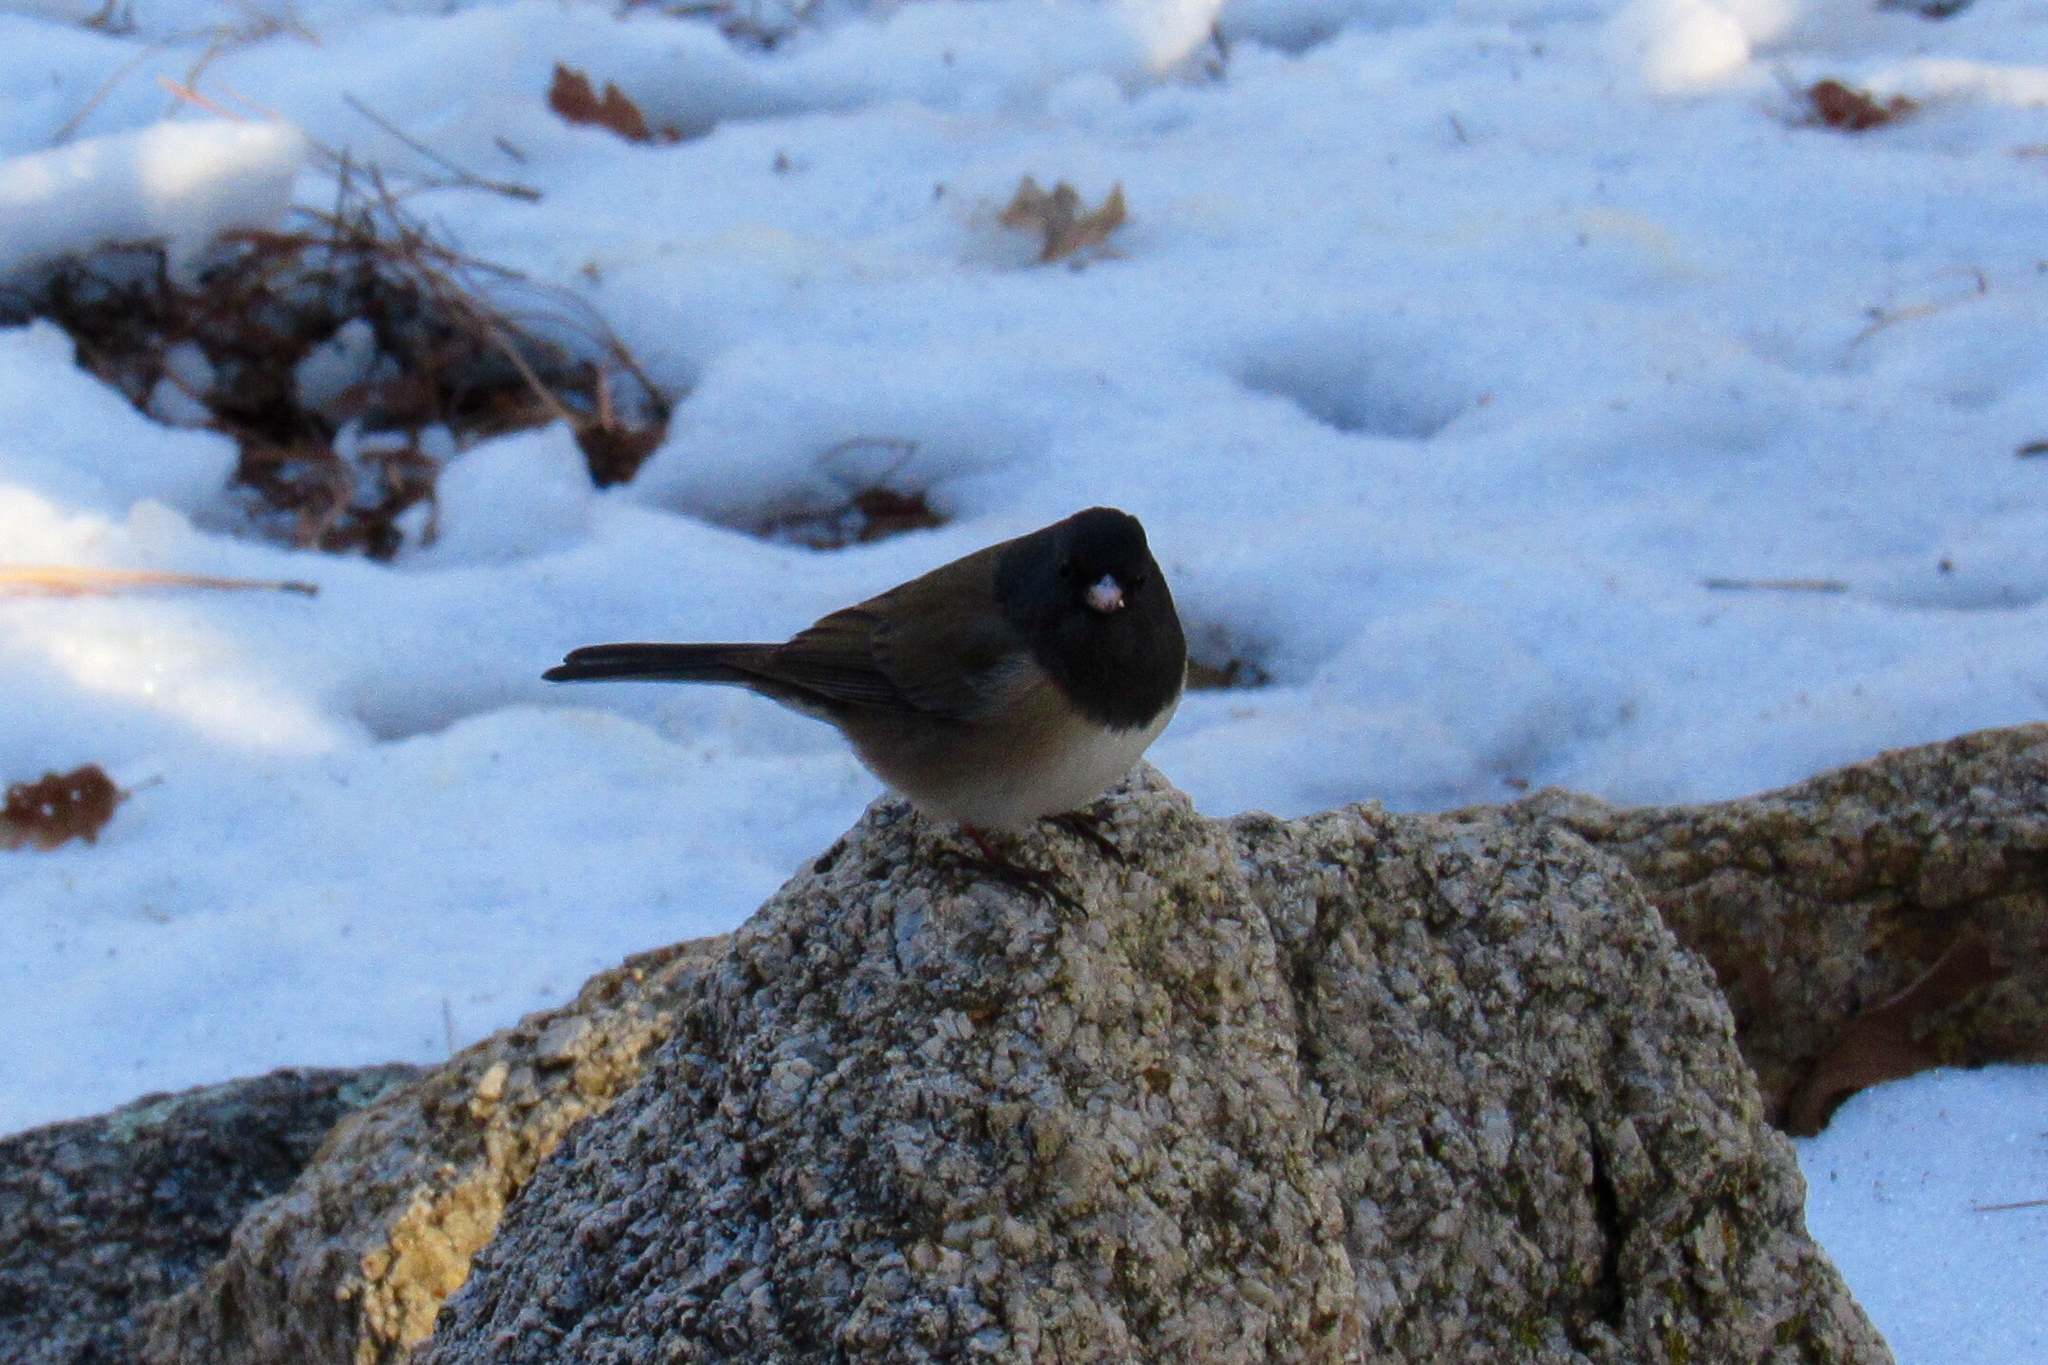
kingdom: Animalia
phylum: Chordata
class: Aves
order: Passeriformes
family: Passerellidae
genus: Junco
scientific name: Junco hyemalis
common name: Dark-eyed junco
